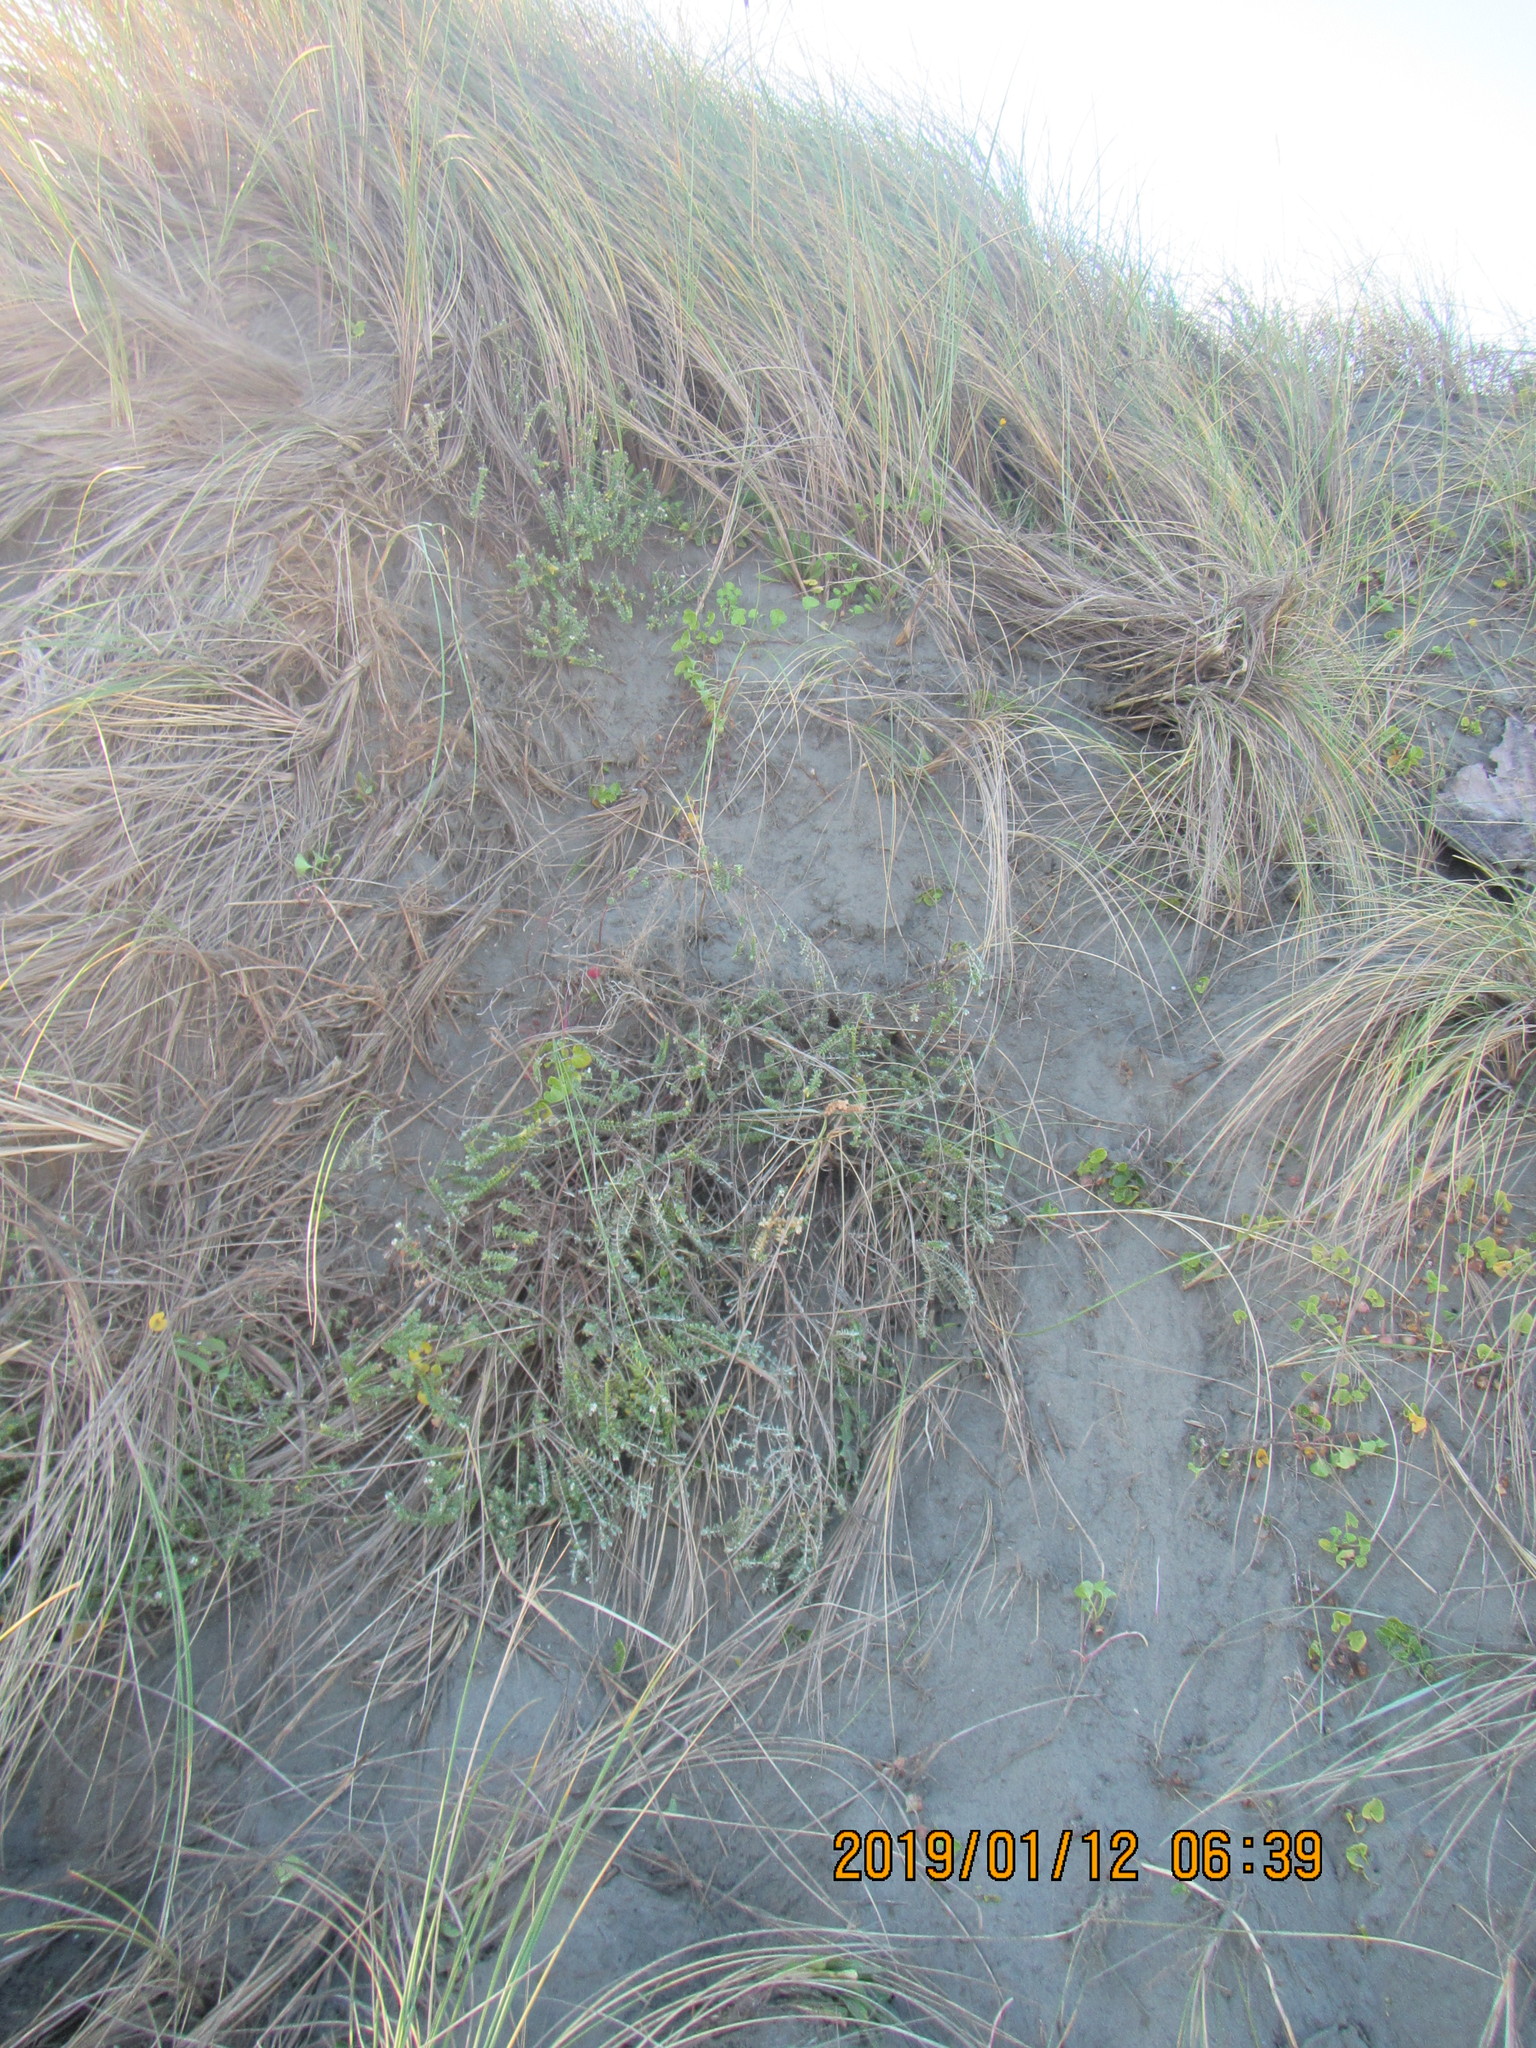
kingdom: Plantae
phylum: Tracheophyta
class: Magnoliopsida
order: Malvales
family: Thymelaeaceae
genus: Pimelea
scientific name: Pimelea villosa
